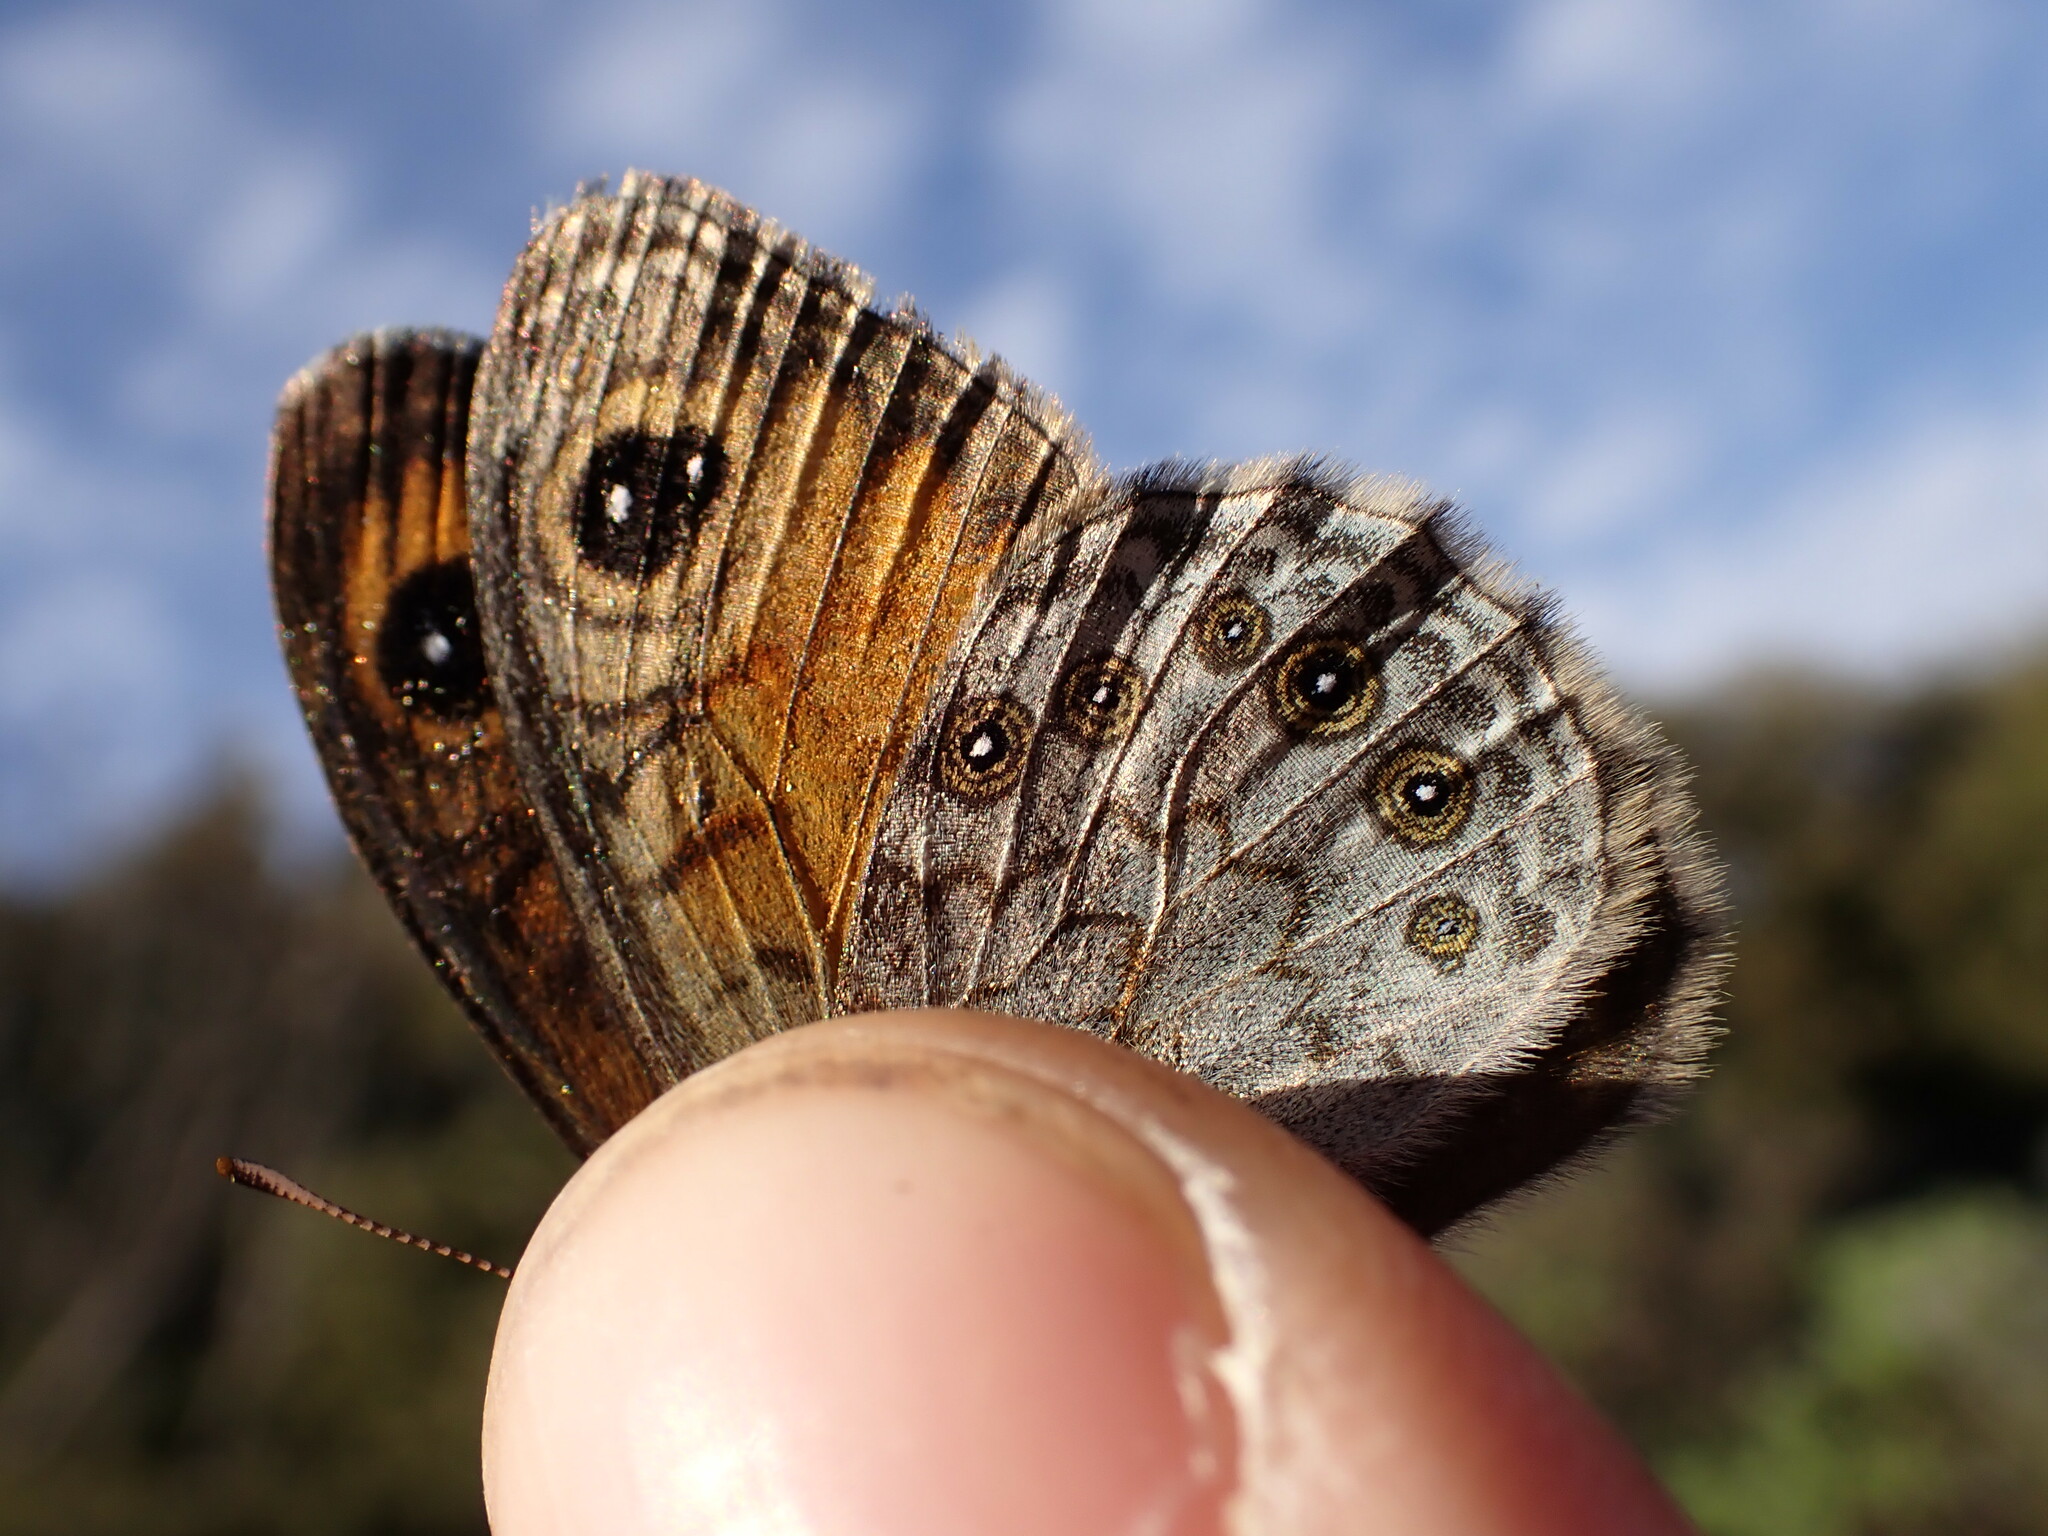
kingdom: Animalia
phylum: Arthropoda
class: Insecta
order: Lepidoptera
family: Nymphalidae
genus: Pararge
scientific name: Pararge Lasiommata maera
